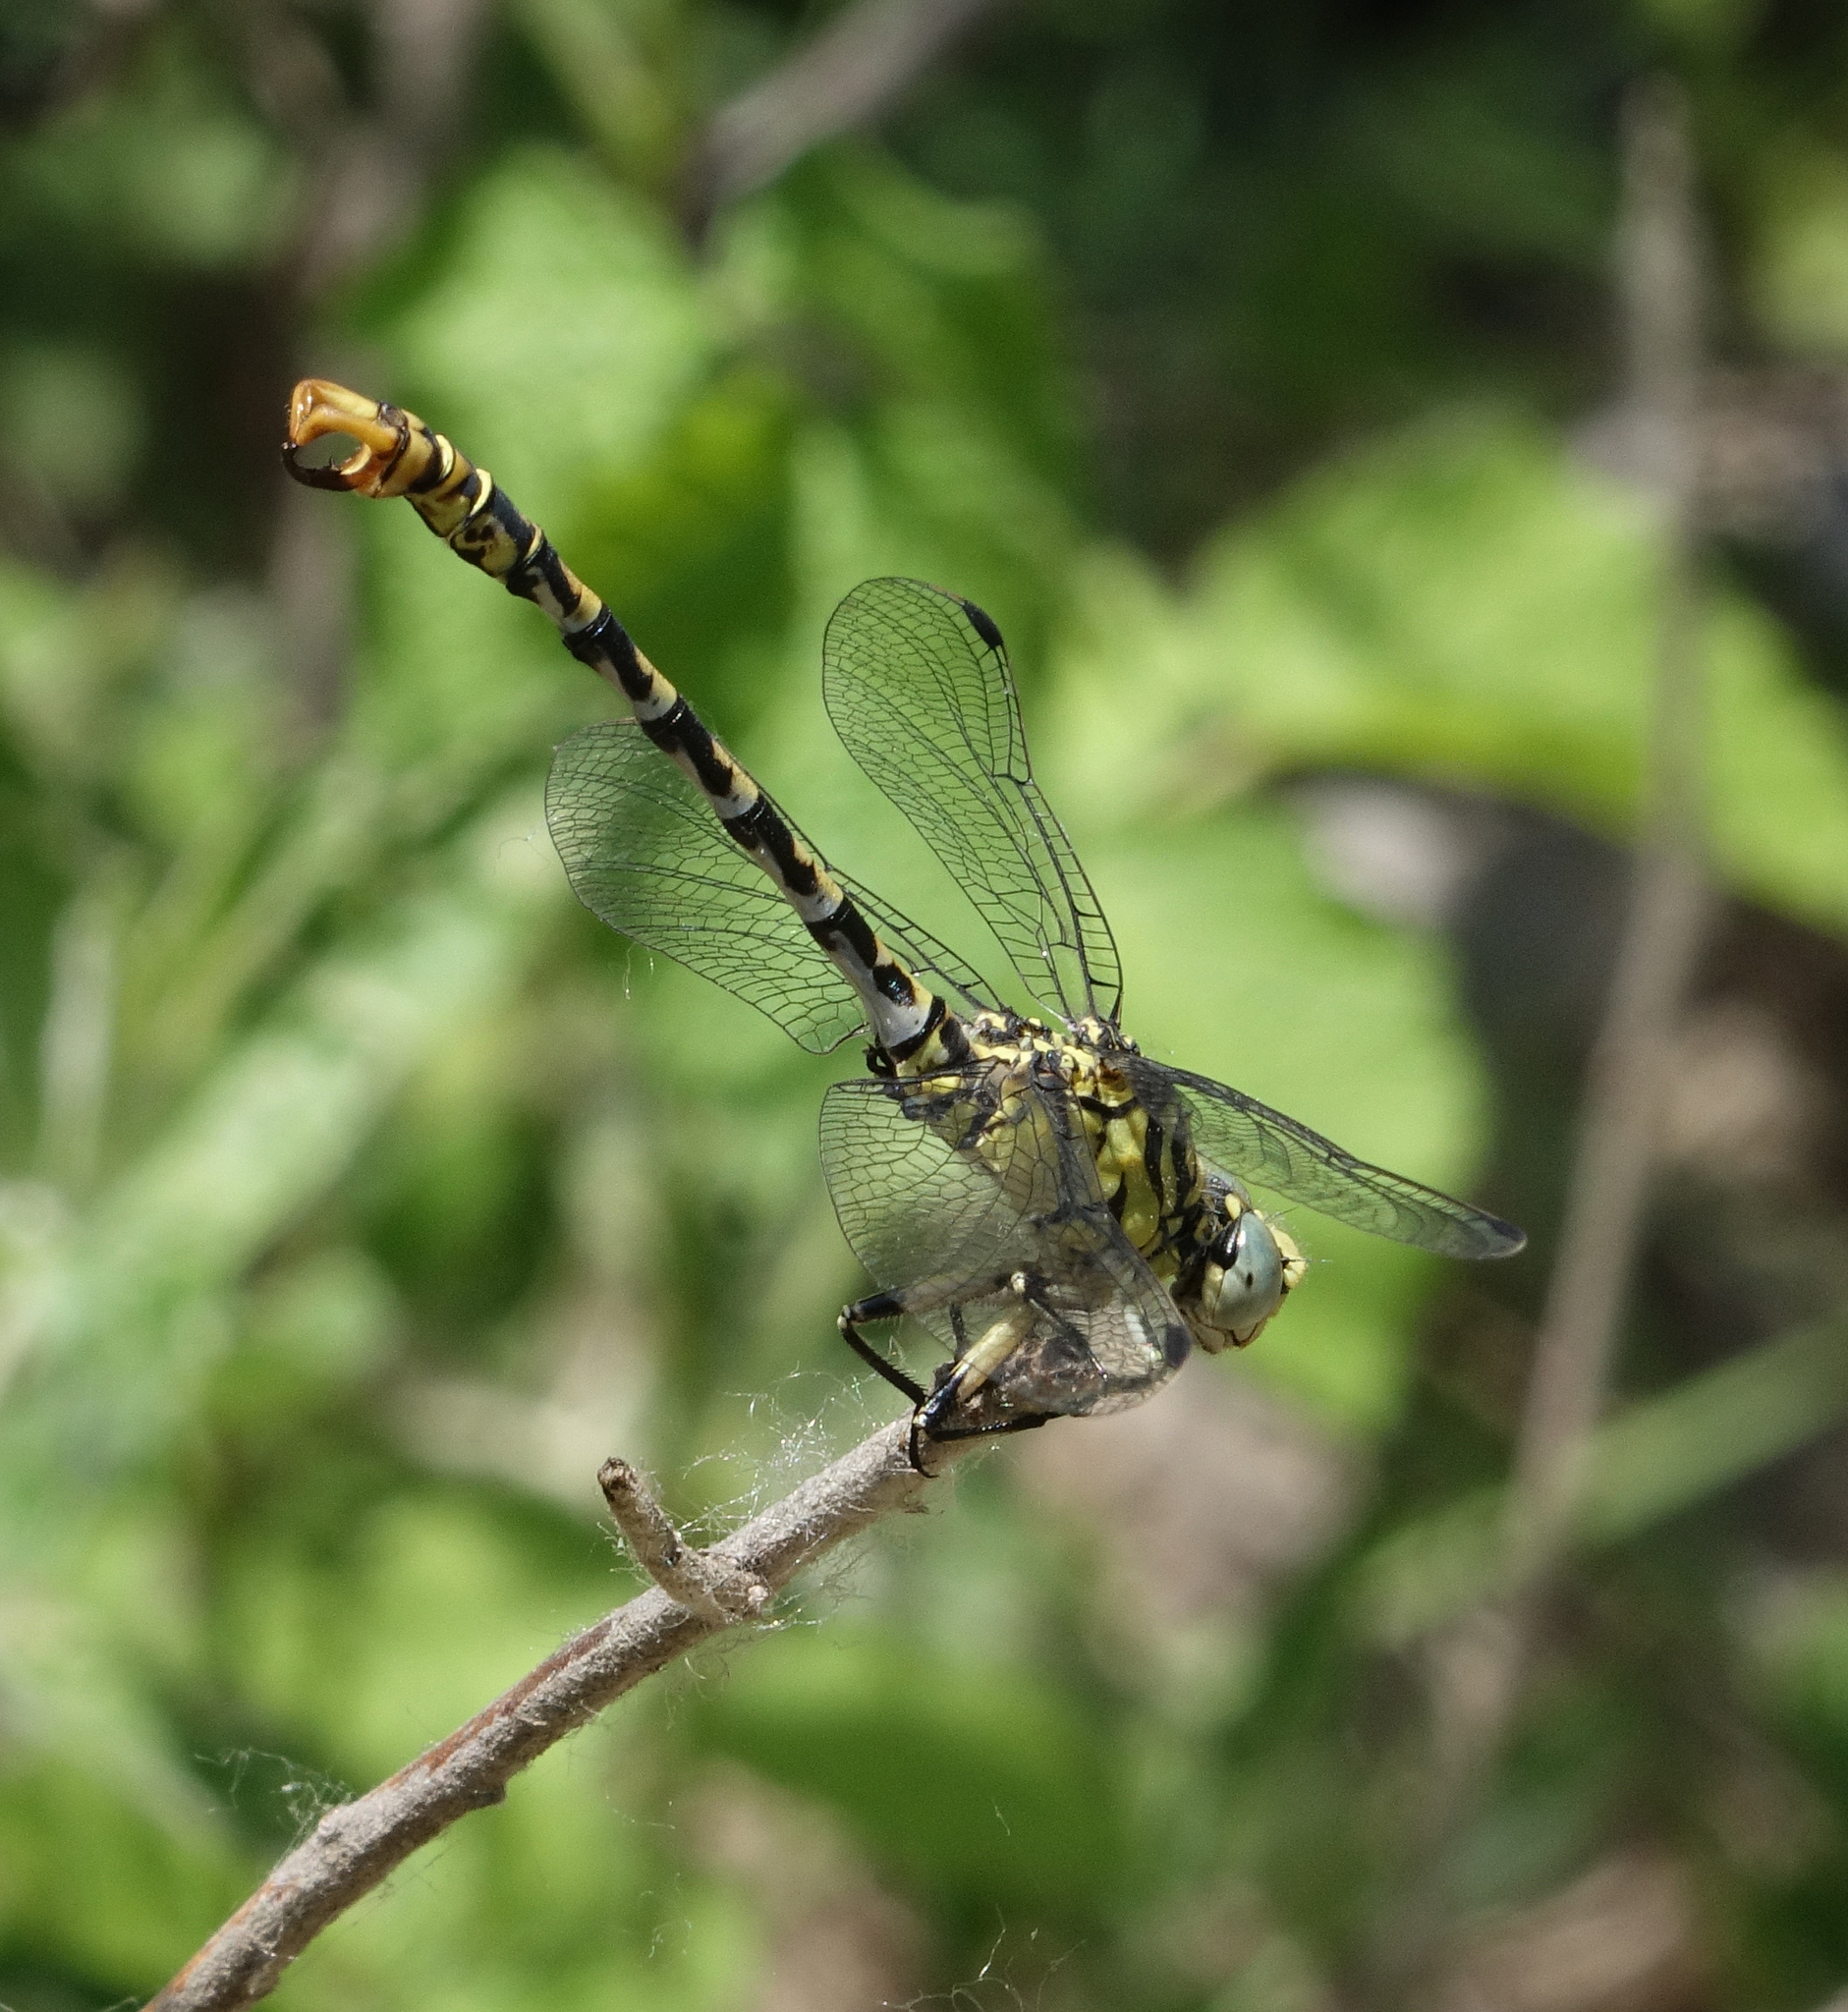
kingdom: Animalia
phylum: Arthropoda
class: Insecta
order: Odonata
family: Gomphidae
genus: Onychogomphus
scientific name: Onychogomphus forcipatus
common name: Small pincertail
